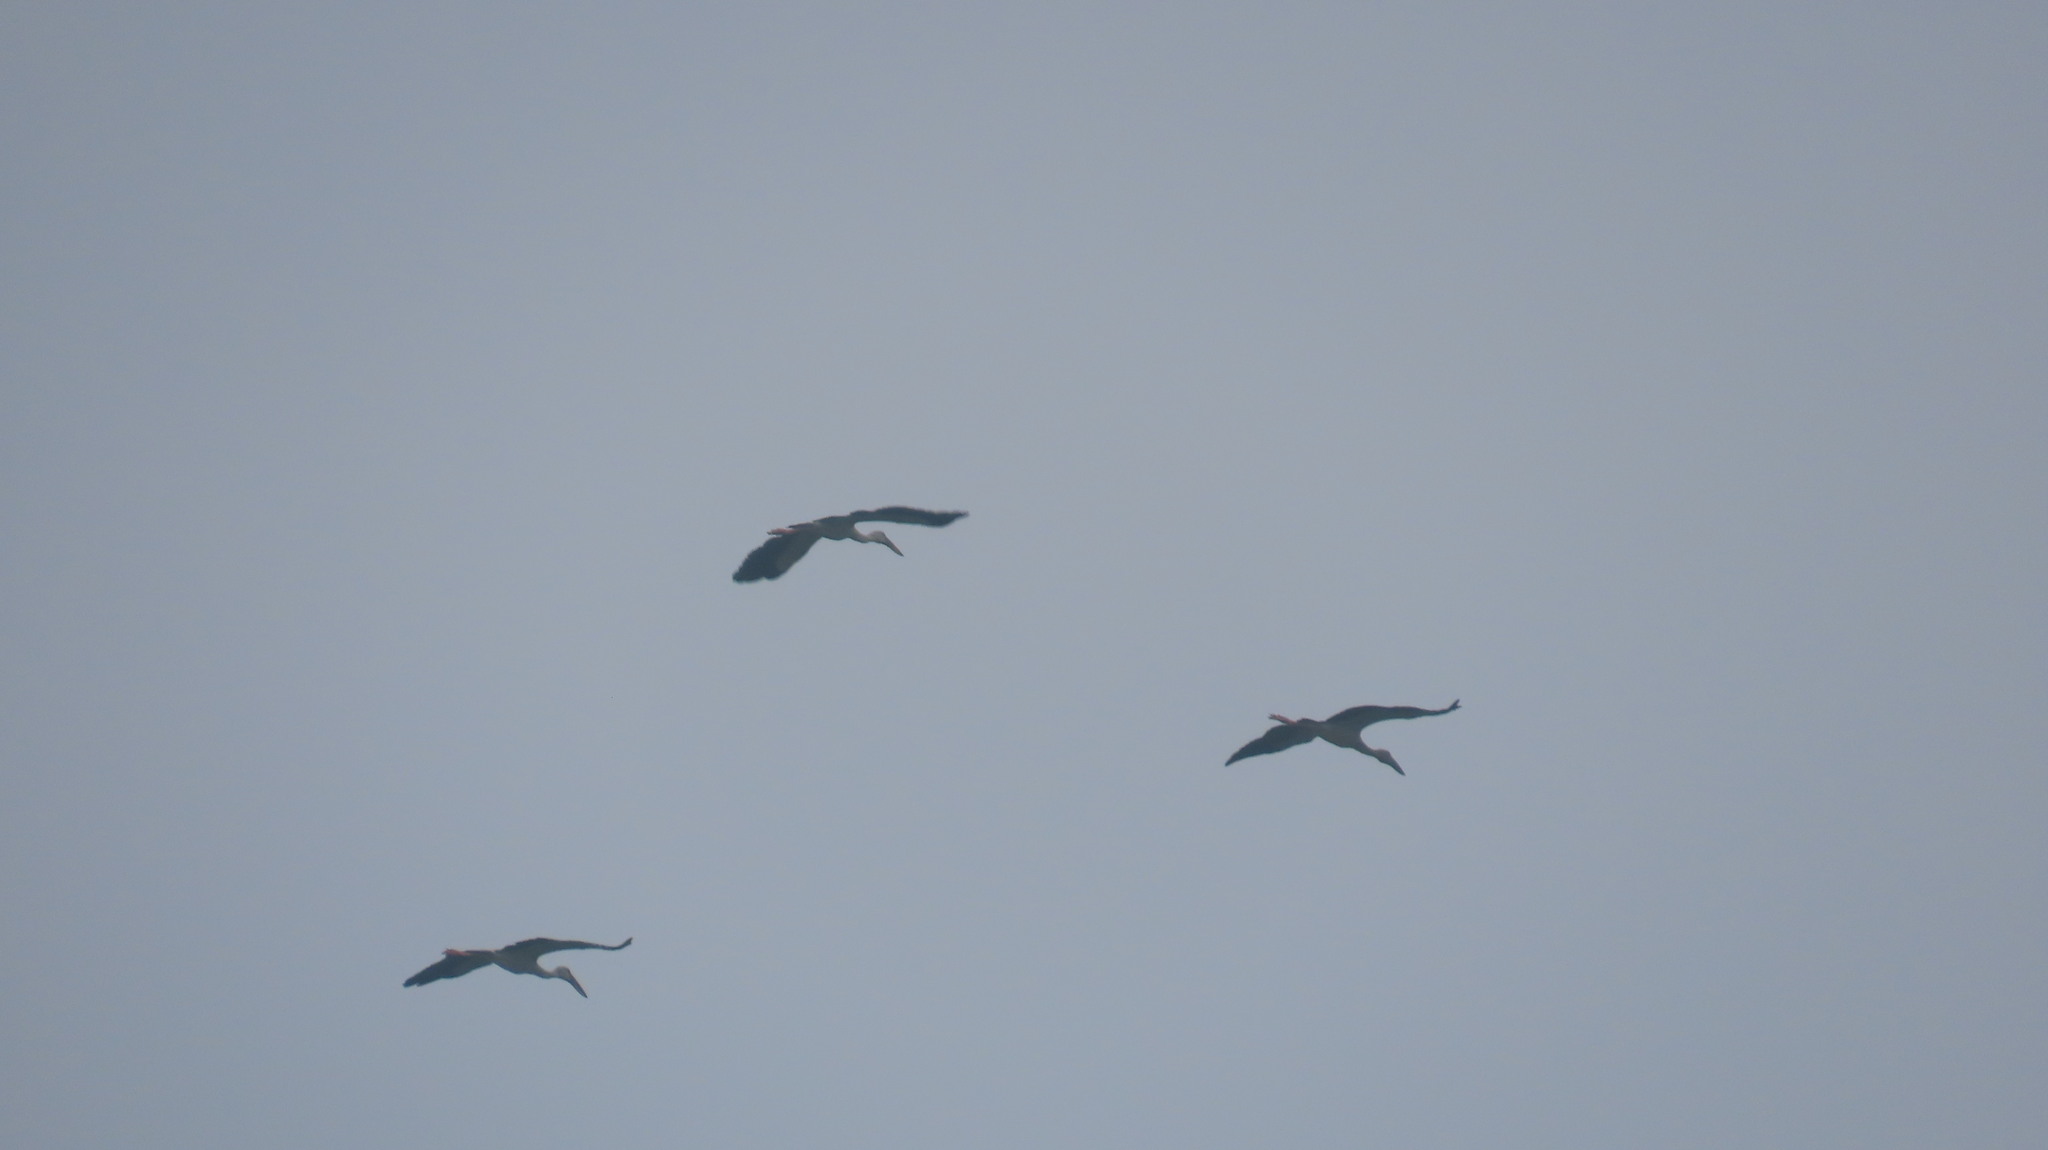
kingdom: Animalia
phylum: Chordata
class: Aves
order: Ciconiiformes
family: Ciconiidae
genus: Anastomus
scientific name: Anastomus oscitans
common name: Asian openbill
